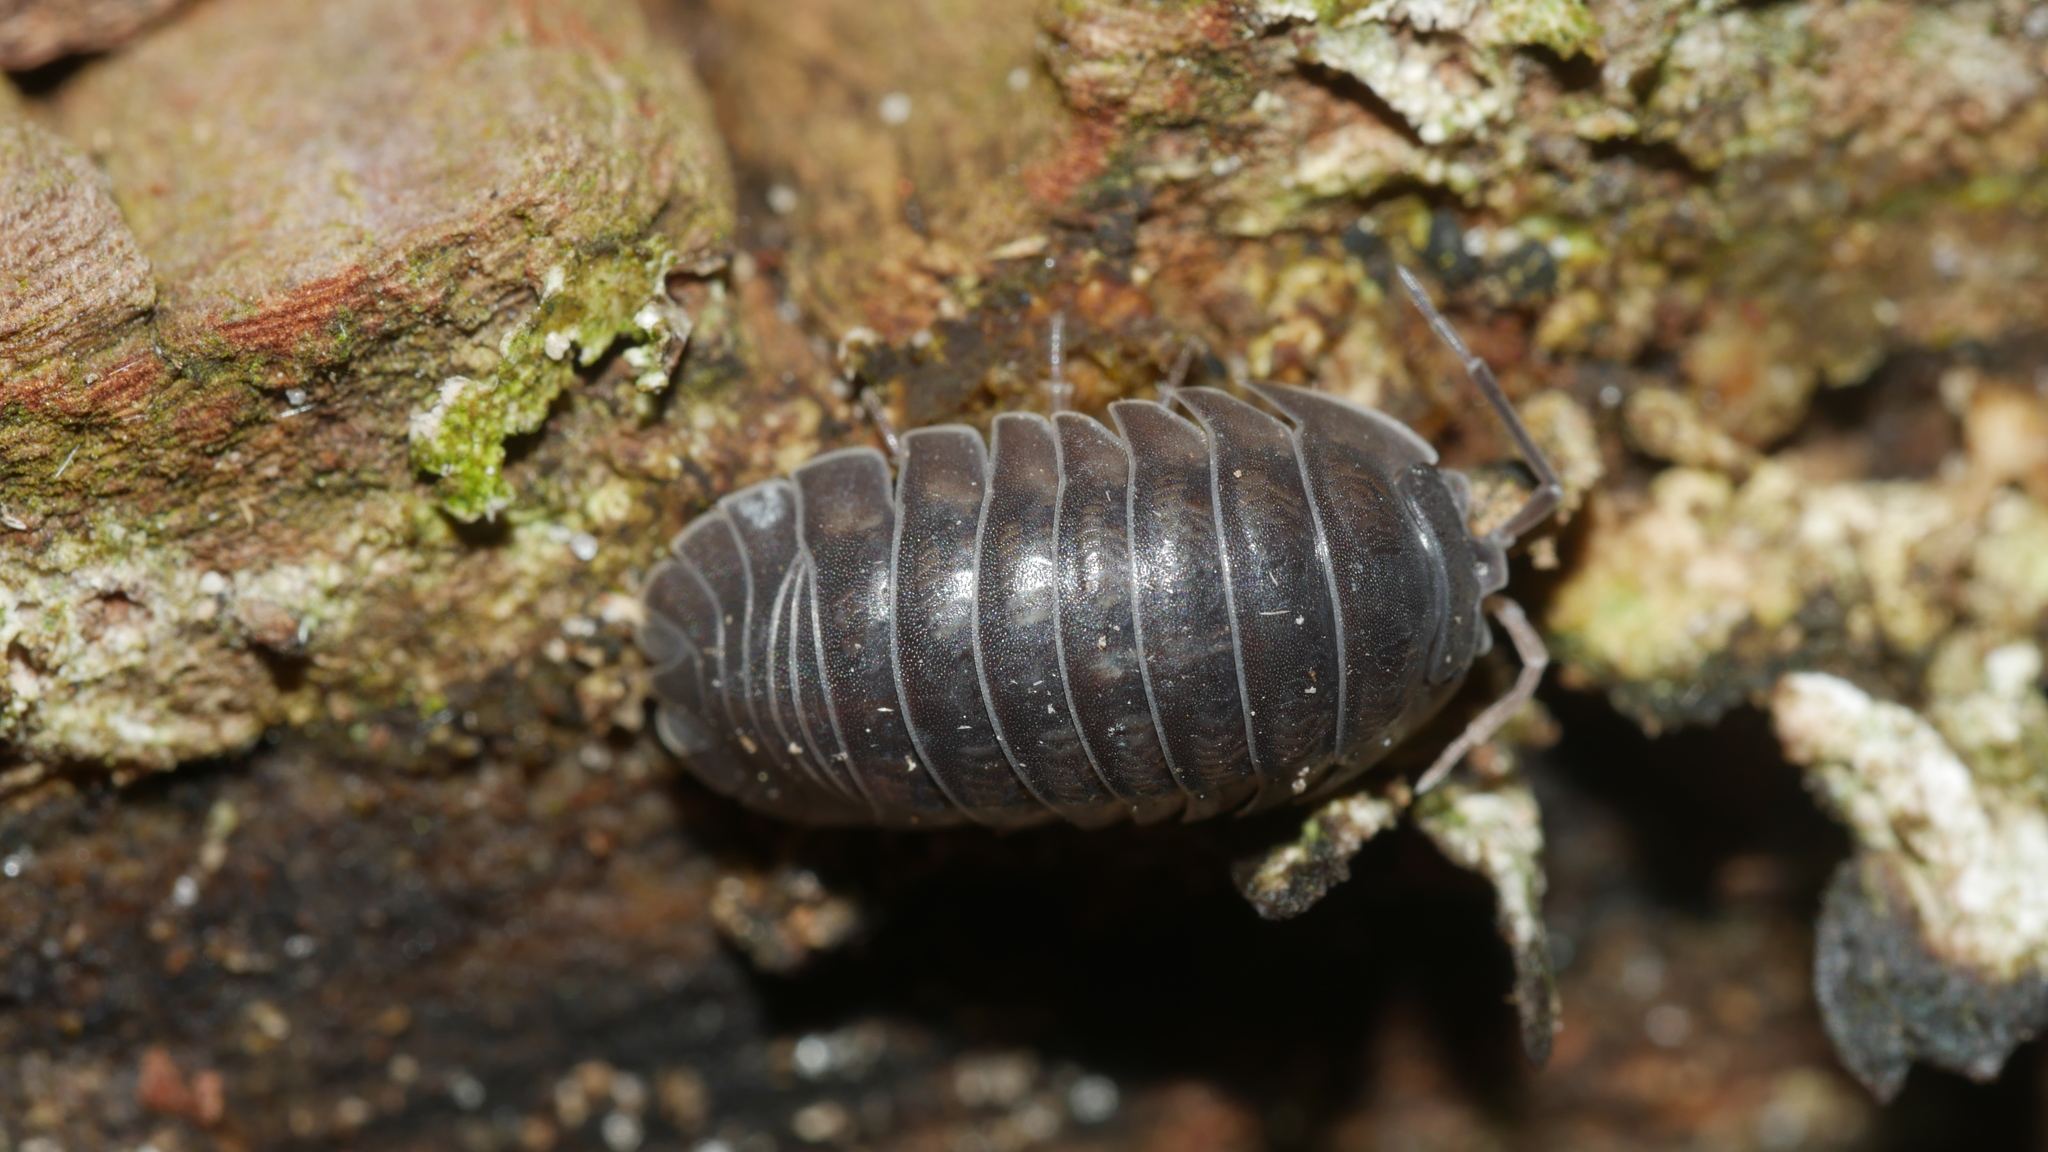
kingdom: Animalia
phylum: Arthropoda
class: Malacostraca
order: Isopoda
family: Armadillidiidae
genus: Armadillidium
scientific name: Armadillidium nasatum
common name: Isopod
